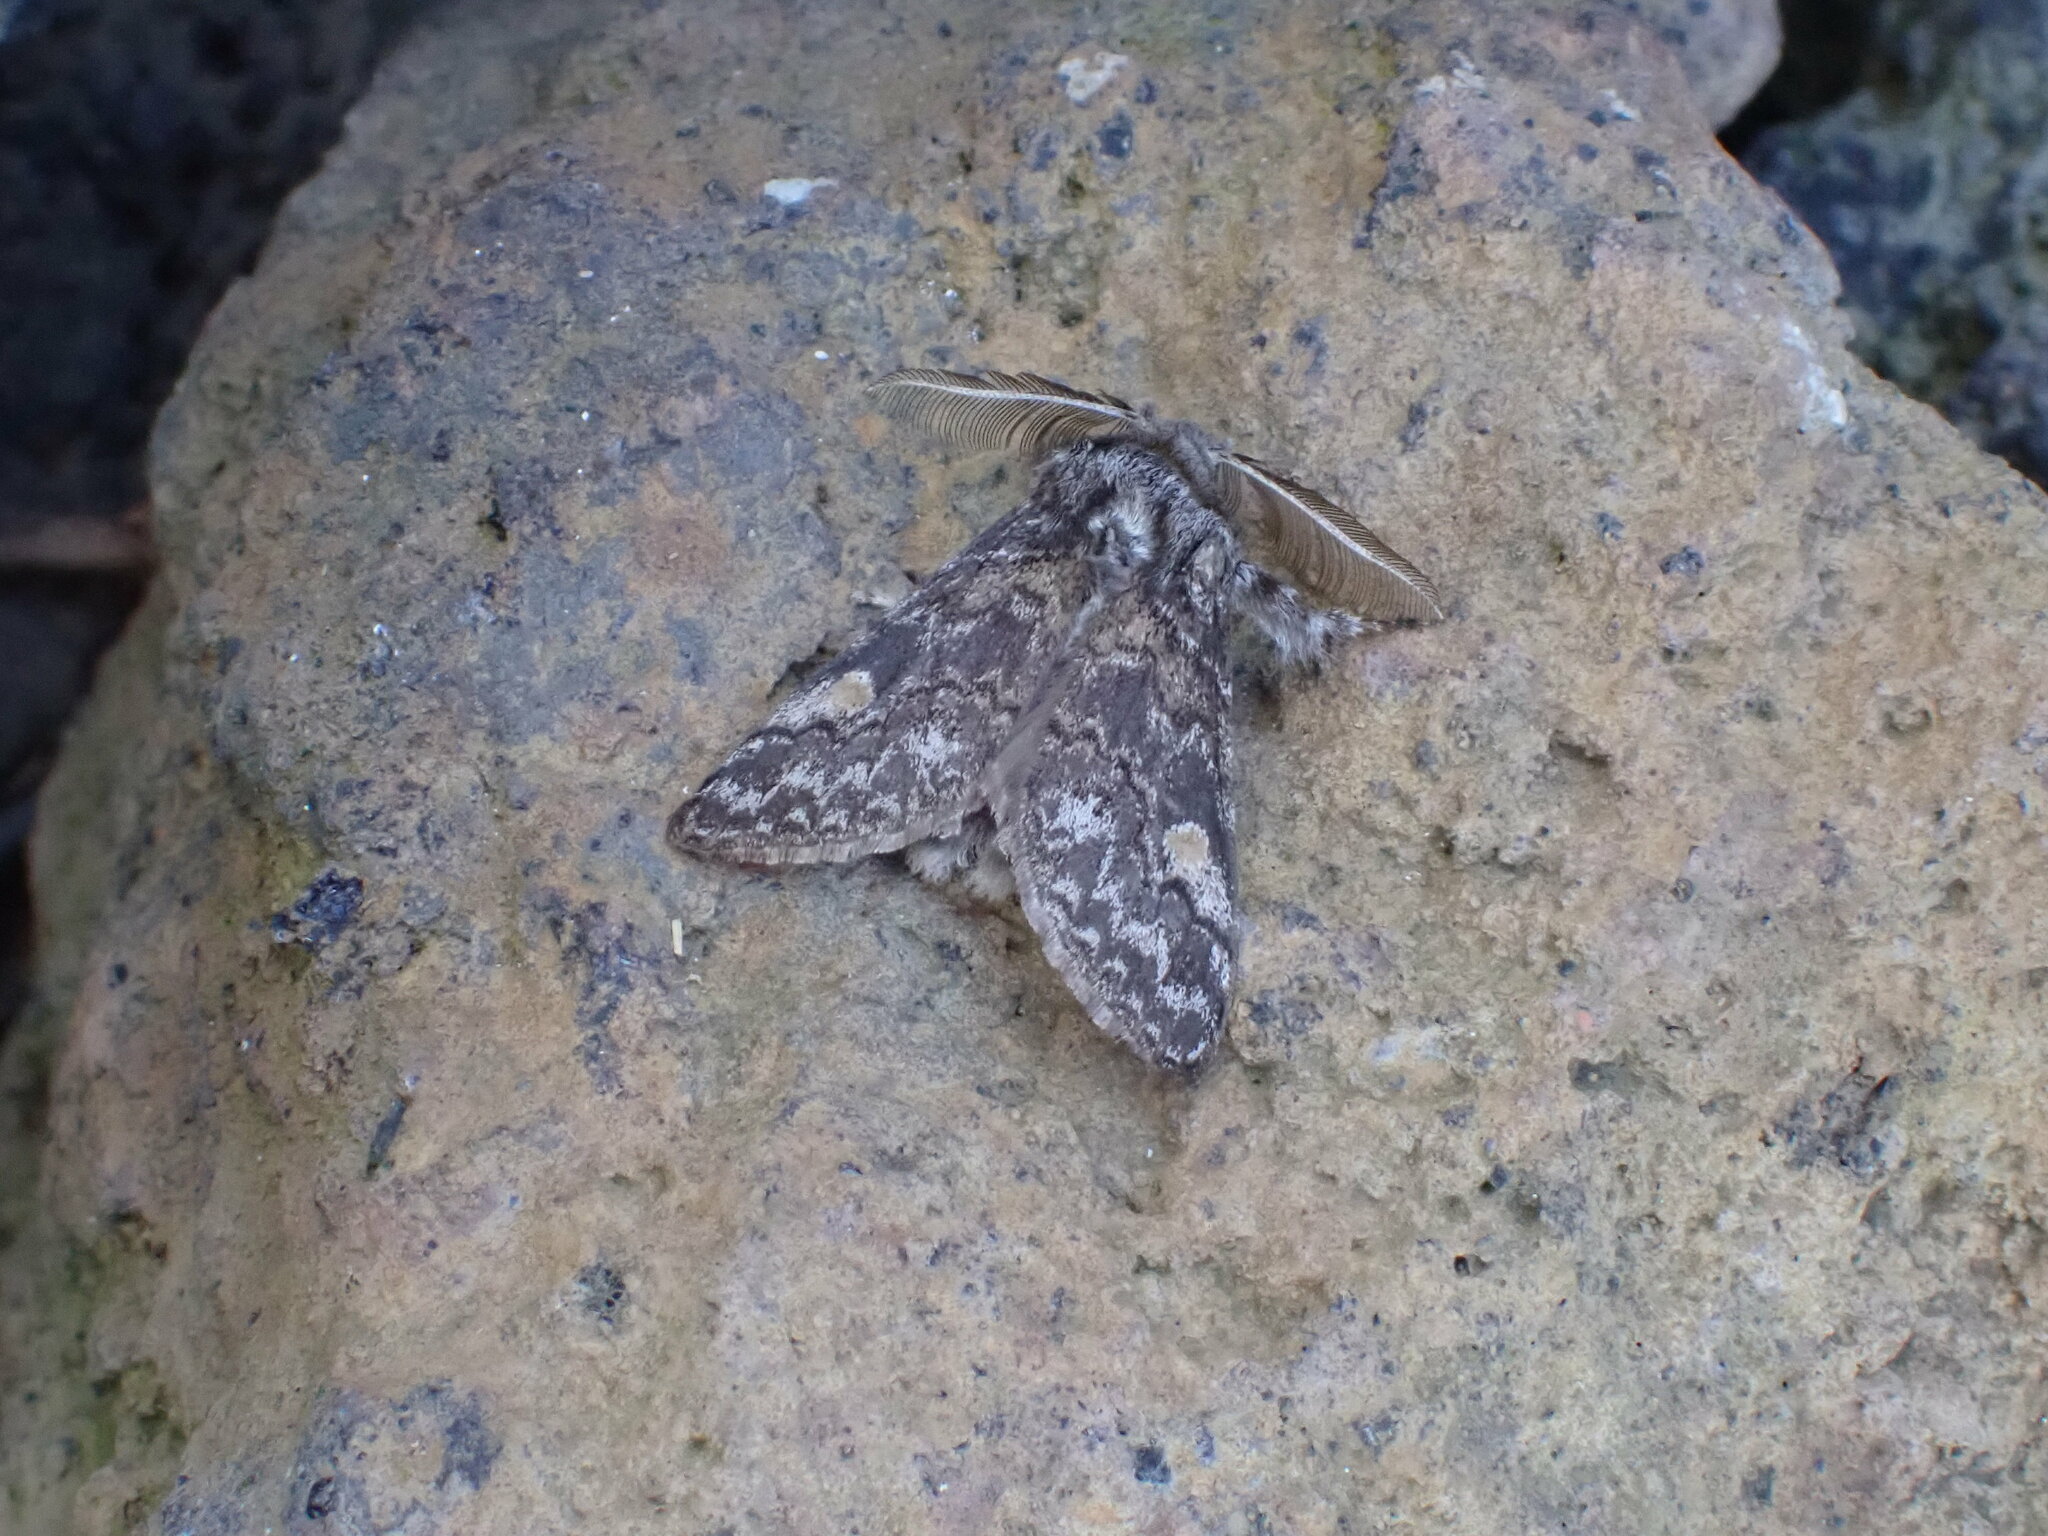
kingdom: Animalia
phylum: Arthropoda
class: Insecta
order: Lepidoptera
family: Erebidae
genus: Calliteara
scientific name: Calliteara
